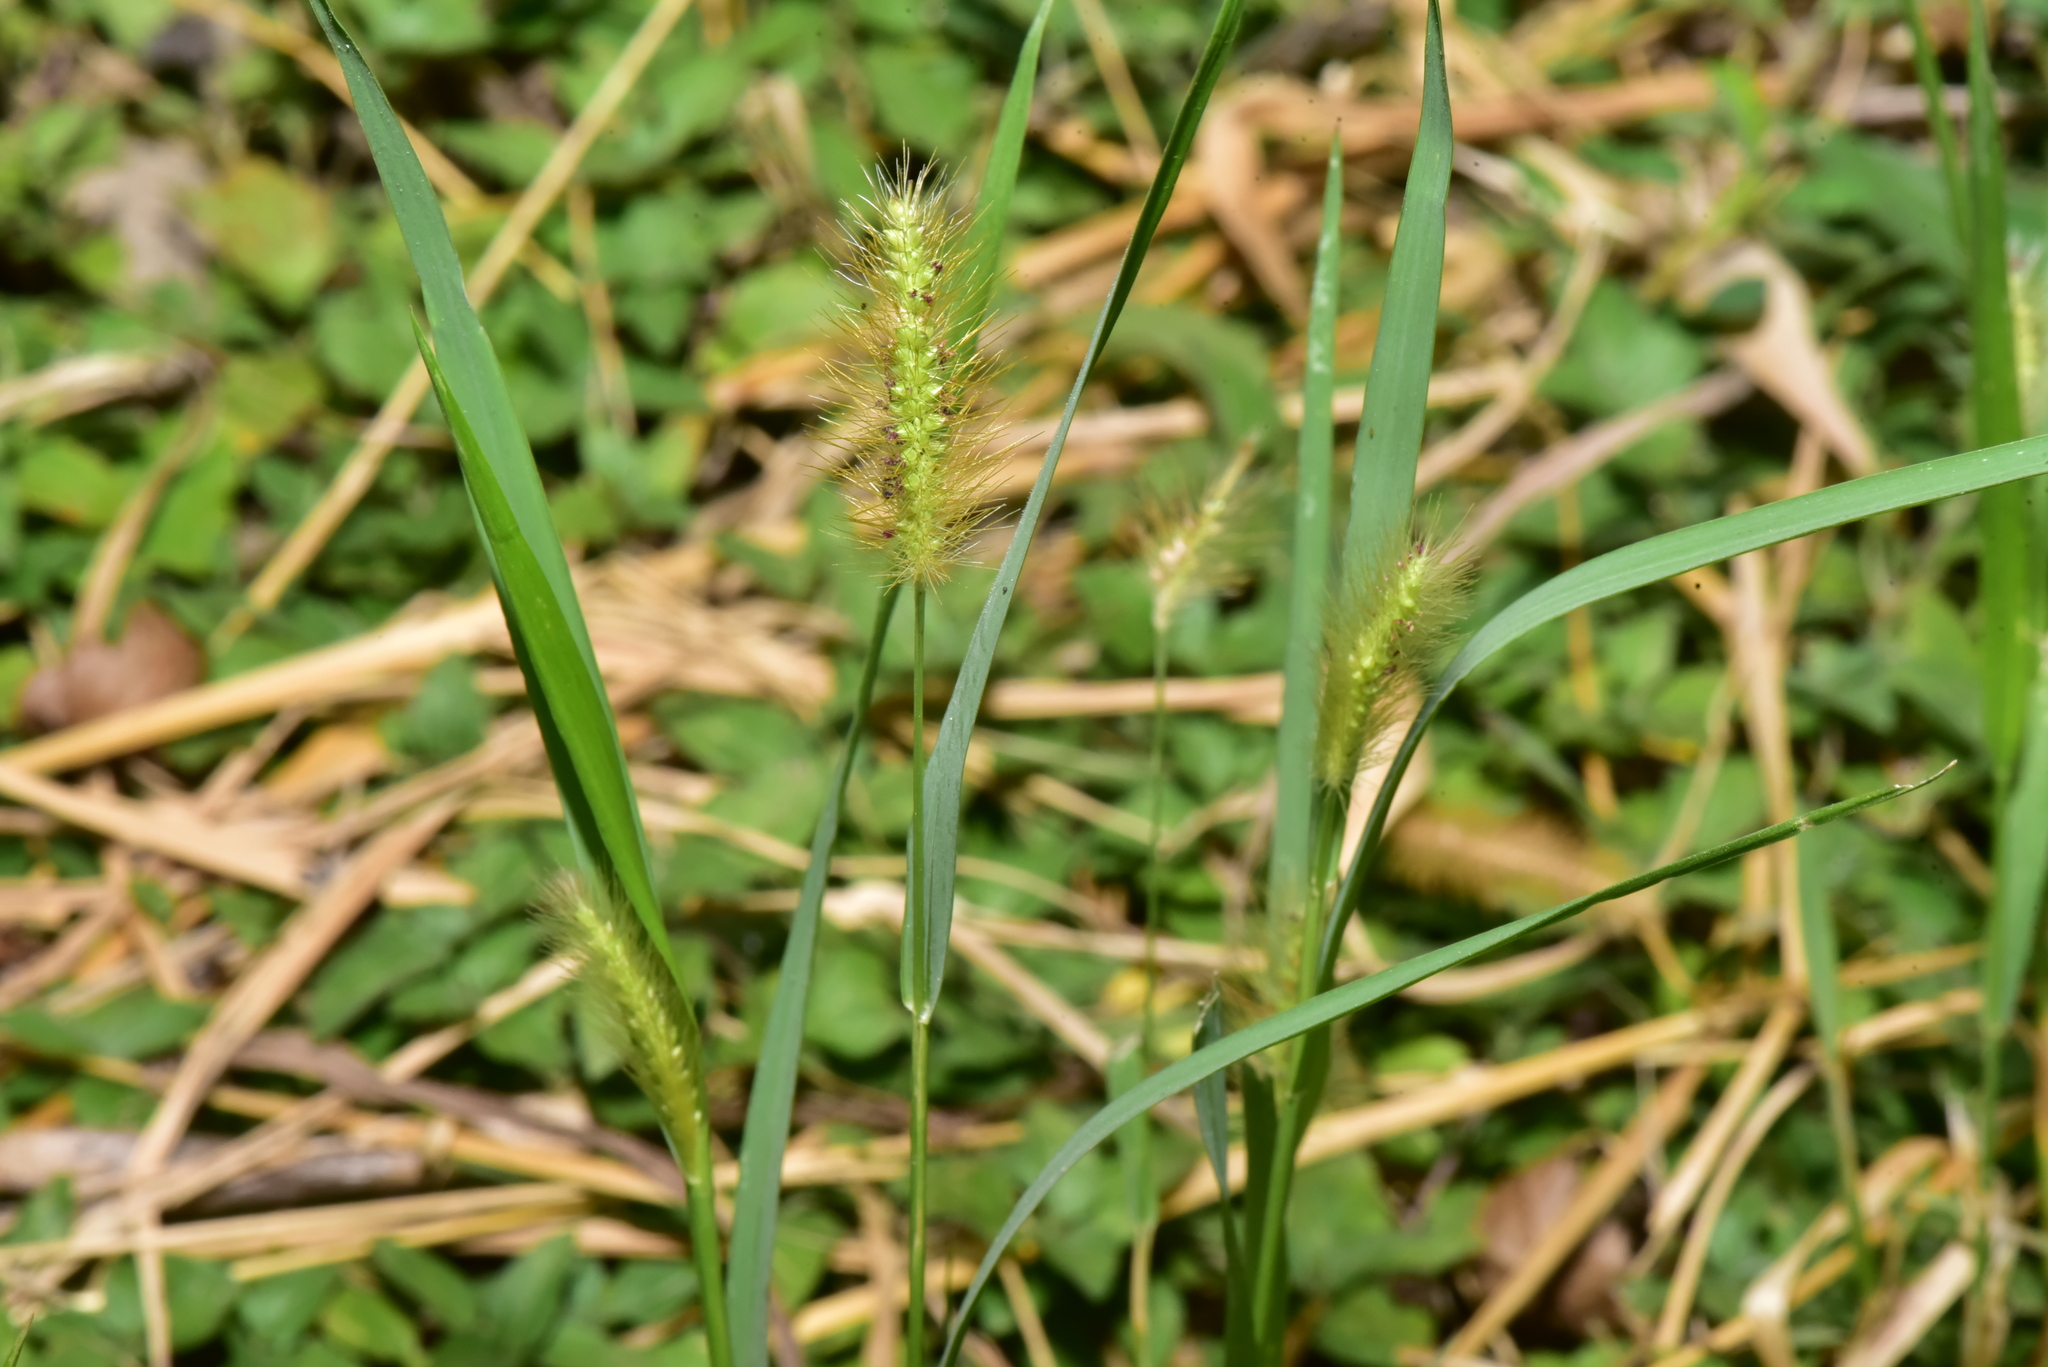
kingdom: Plantae
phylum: Tracheophyta
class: Liliopsida
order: Poales
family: Poaceae
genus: Setaria
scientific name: Setaria parviflora
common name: Knotroot bristle-grass
